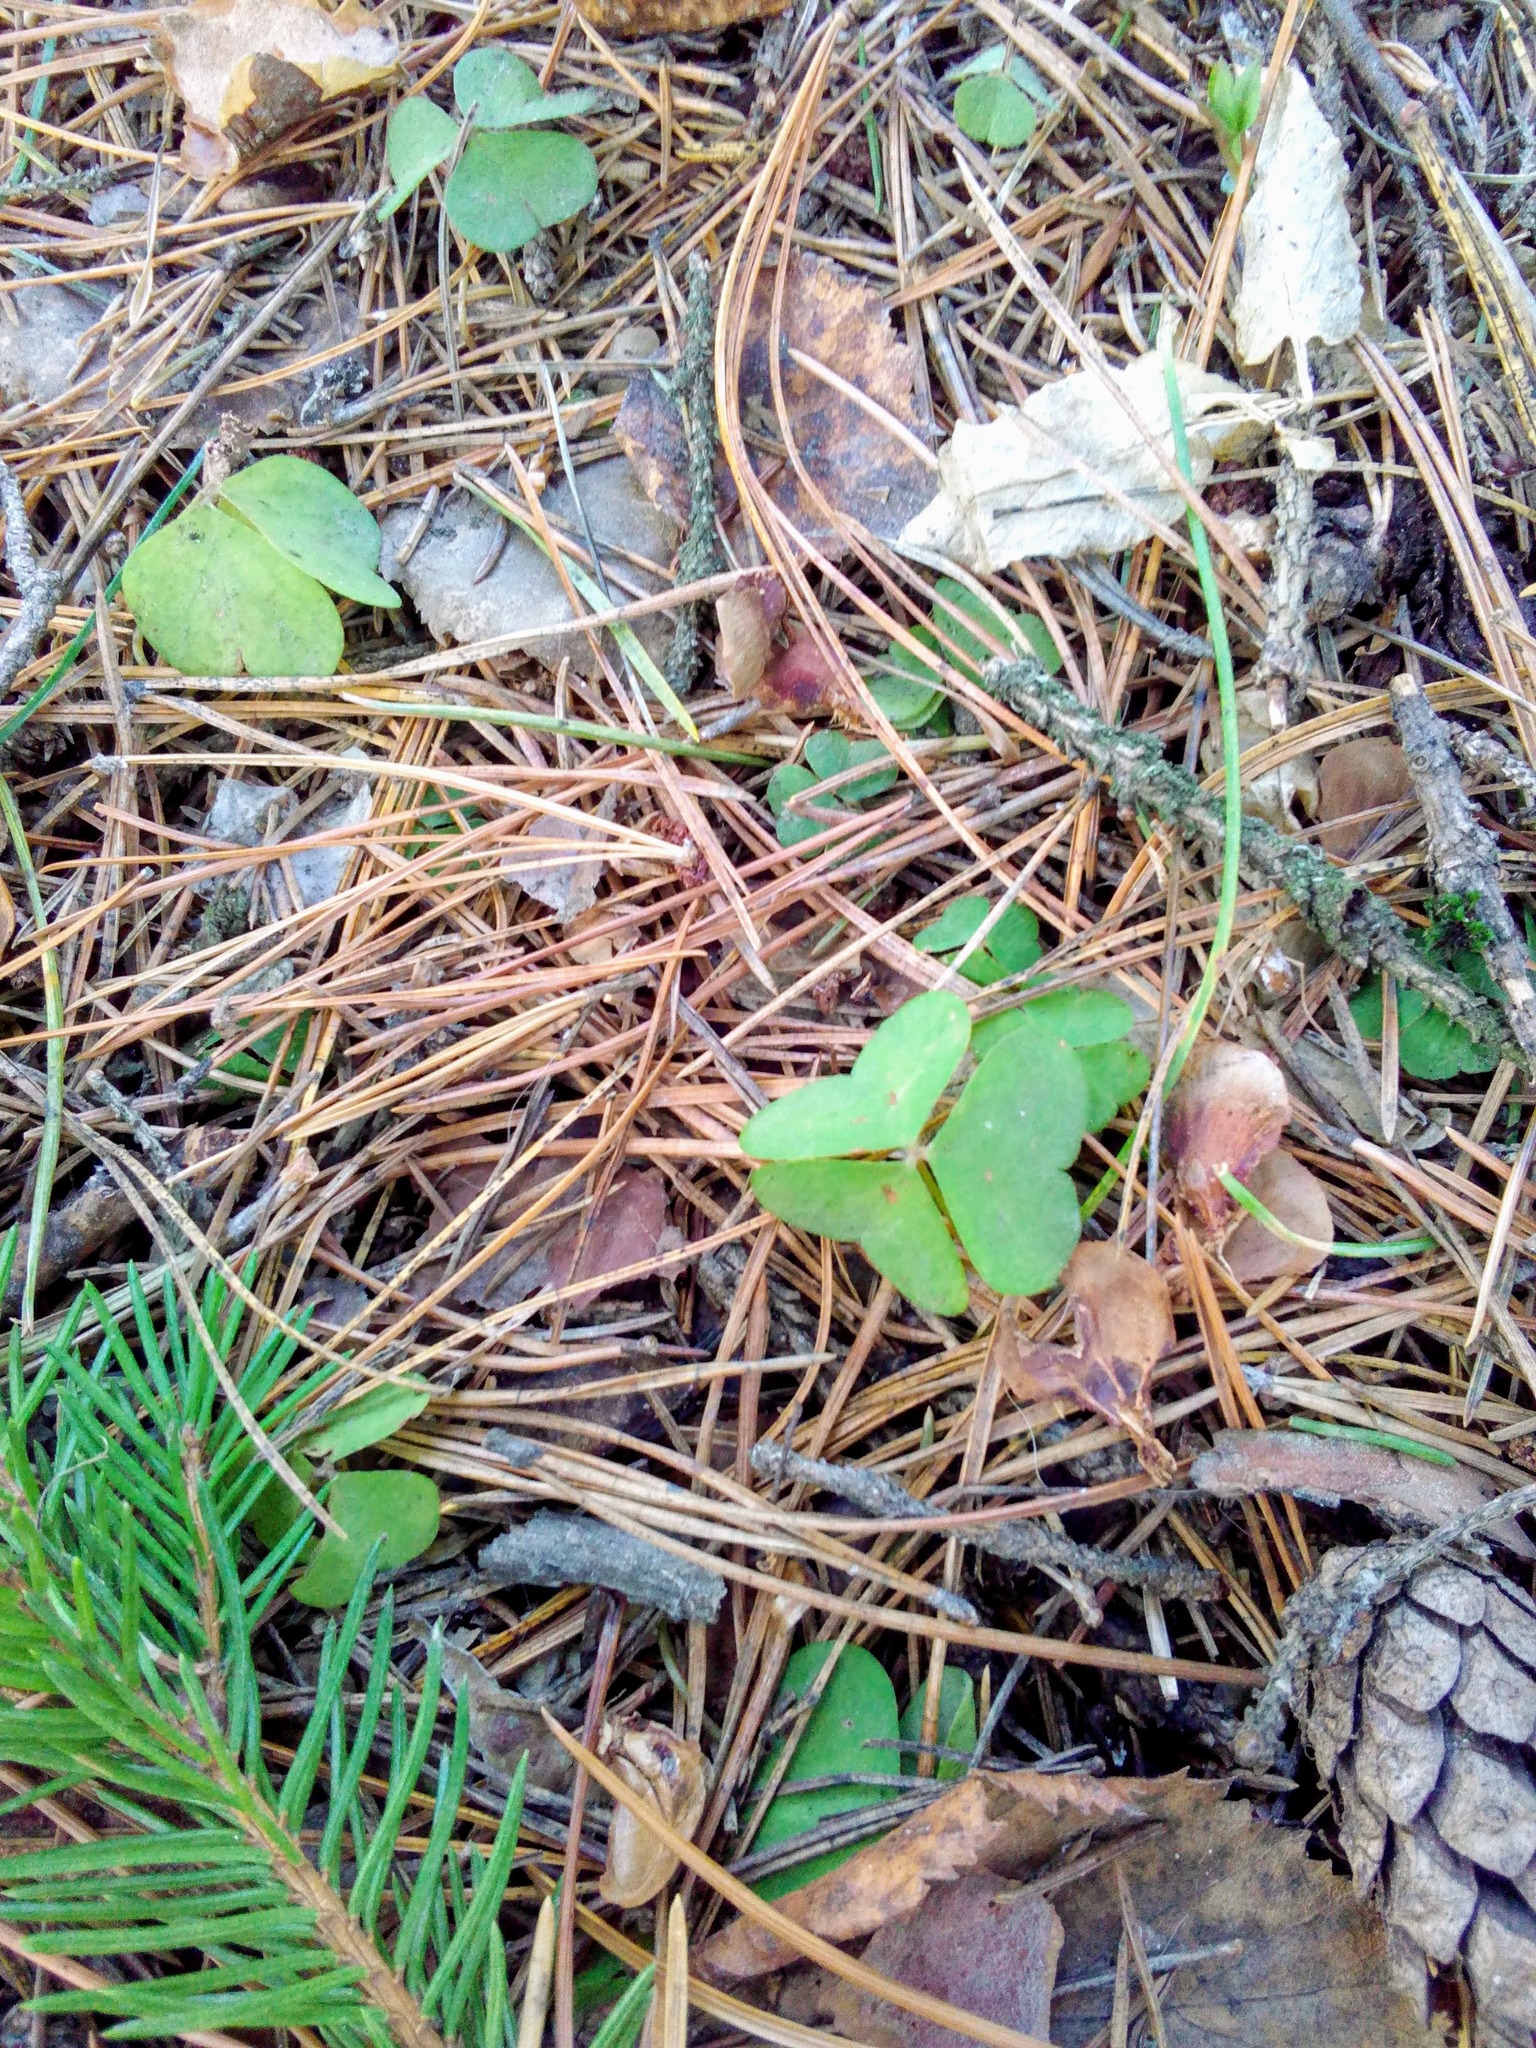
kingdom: Plantae
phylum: Tracheophyta
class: Magnoliopsida
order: Oxalidales
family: Oxalidaceae
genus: Oxalis
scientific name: Oxalis acetosella
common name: Wood-sorrel
